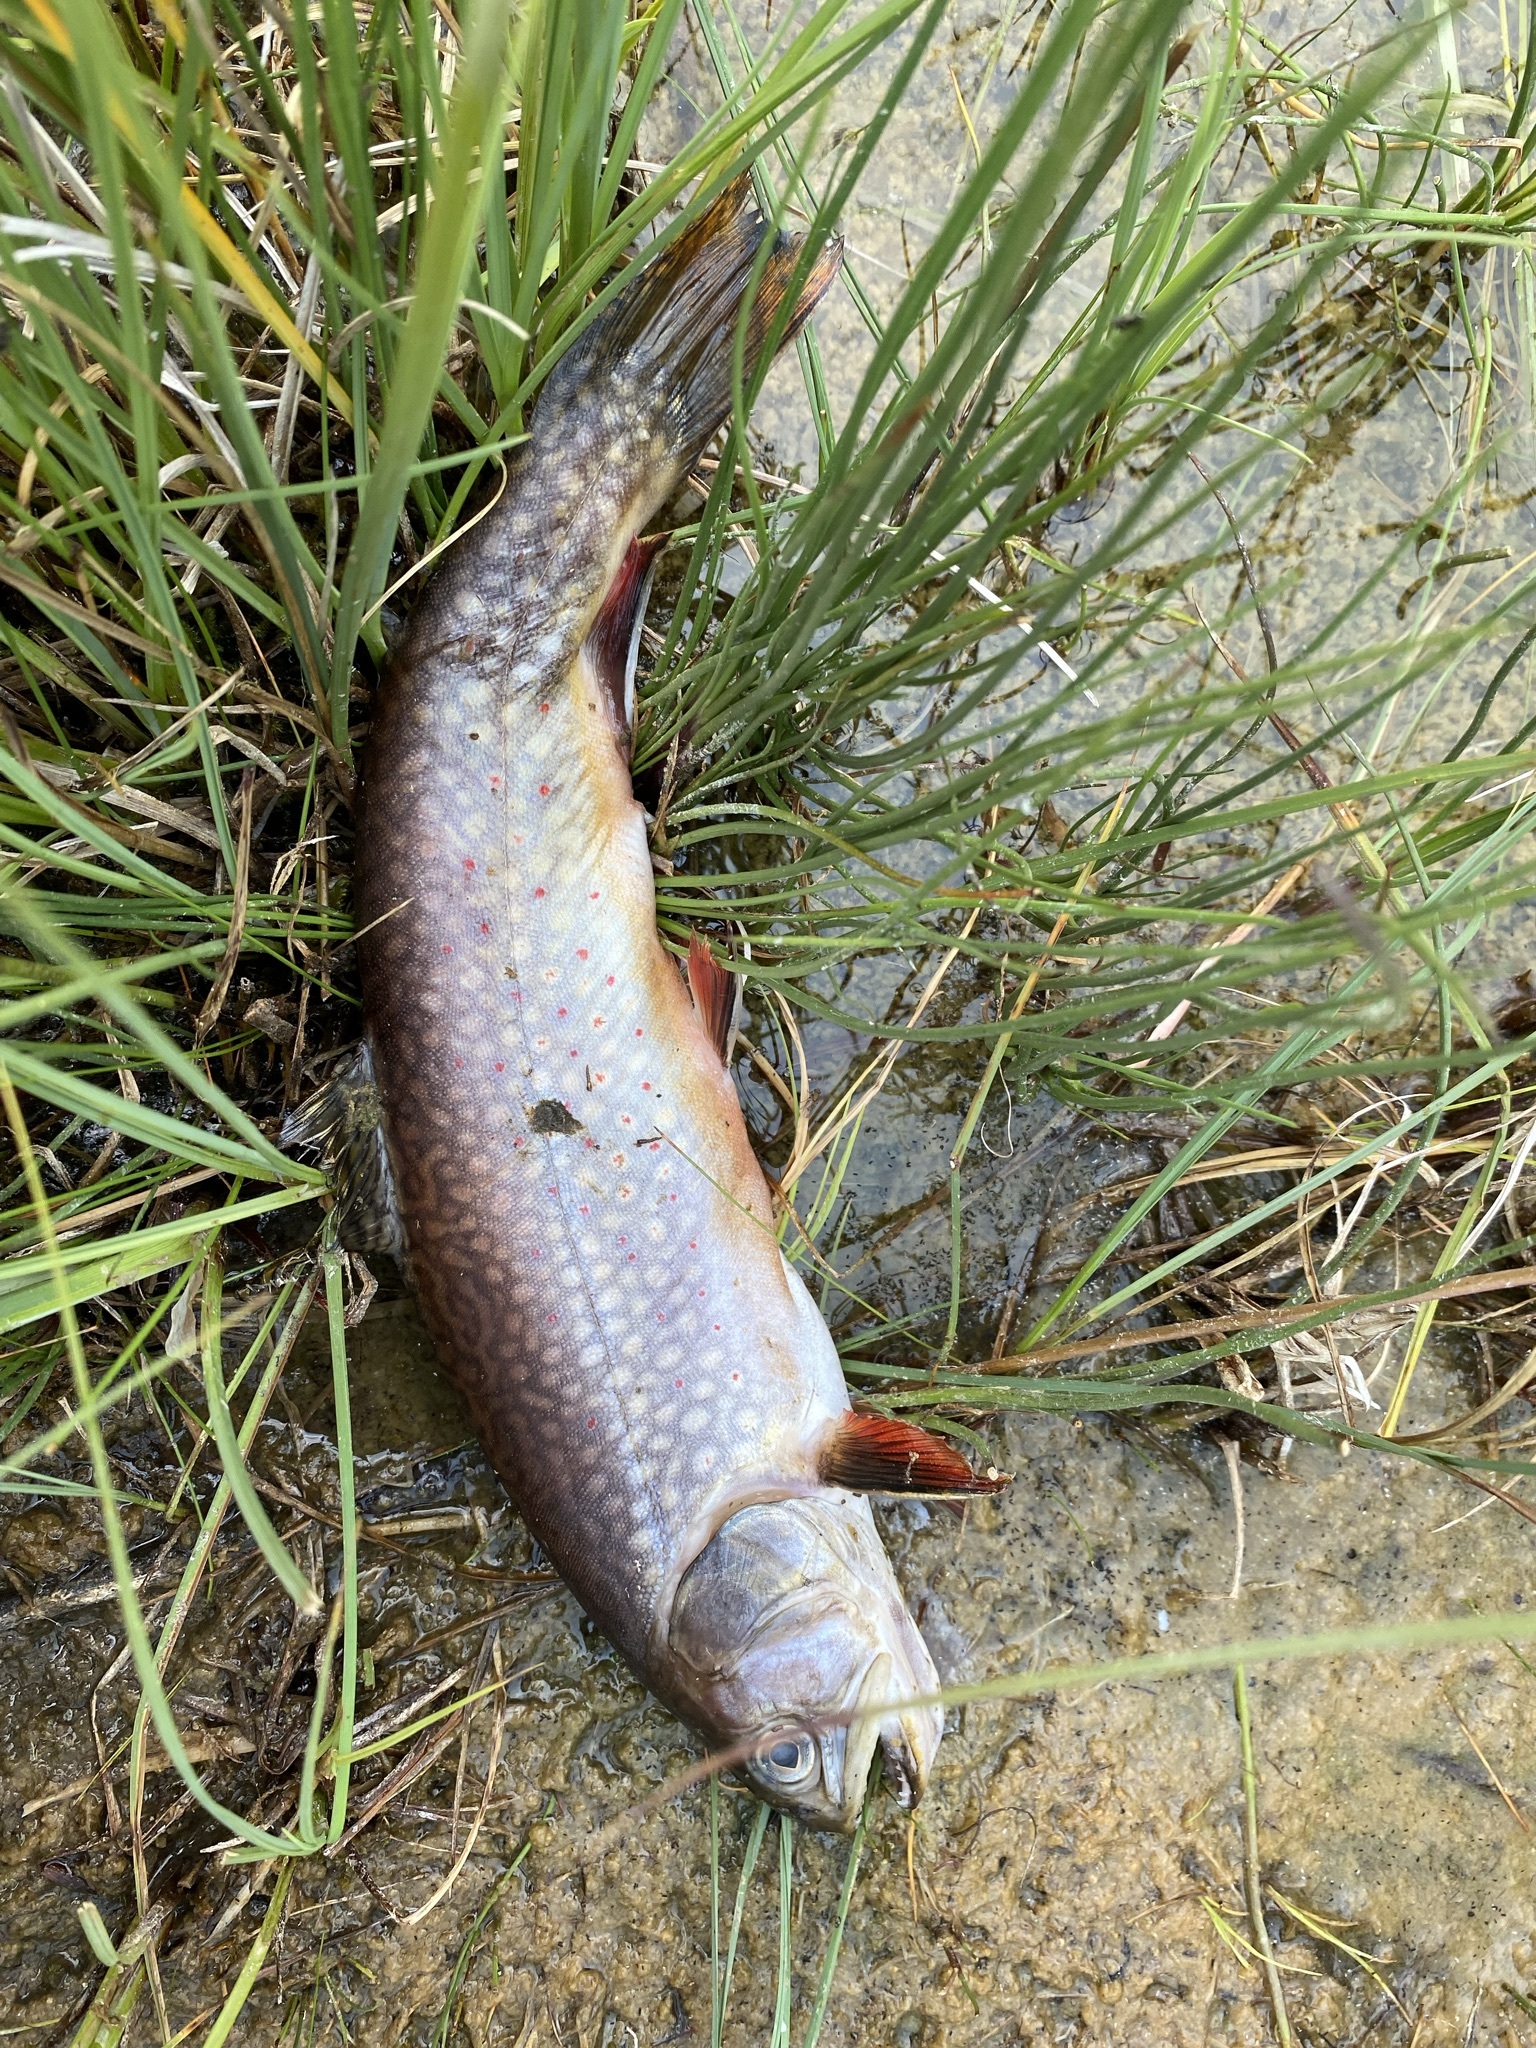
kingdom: Animalia
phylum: Chordata
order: Salmoniformes
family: Salmonidae
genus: Salvelinus
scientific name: Salvelinus fontinalis
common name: Brook trout
